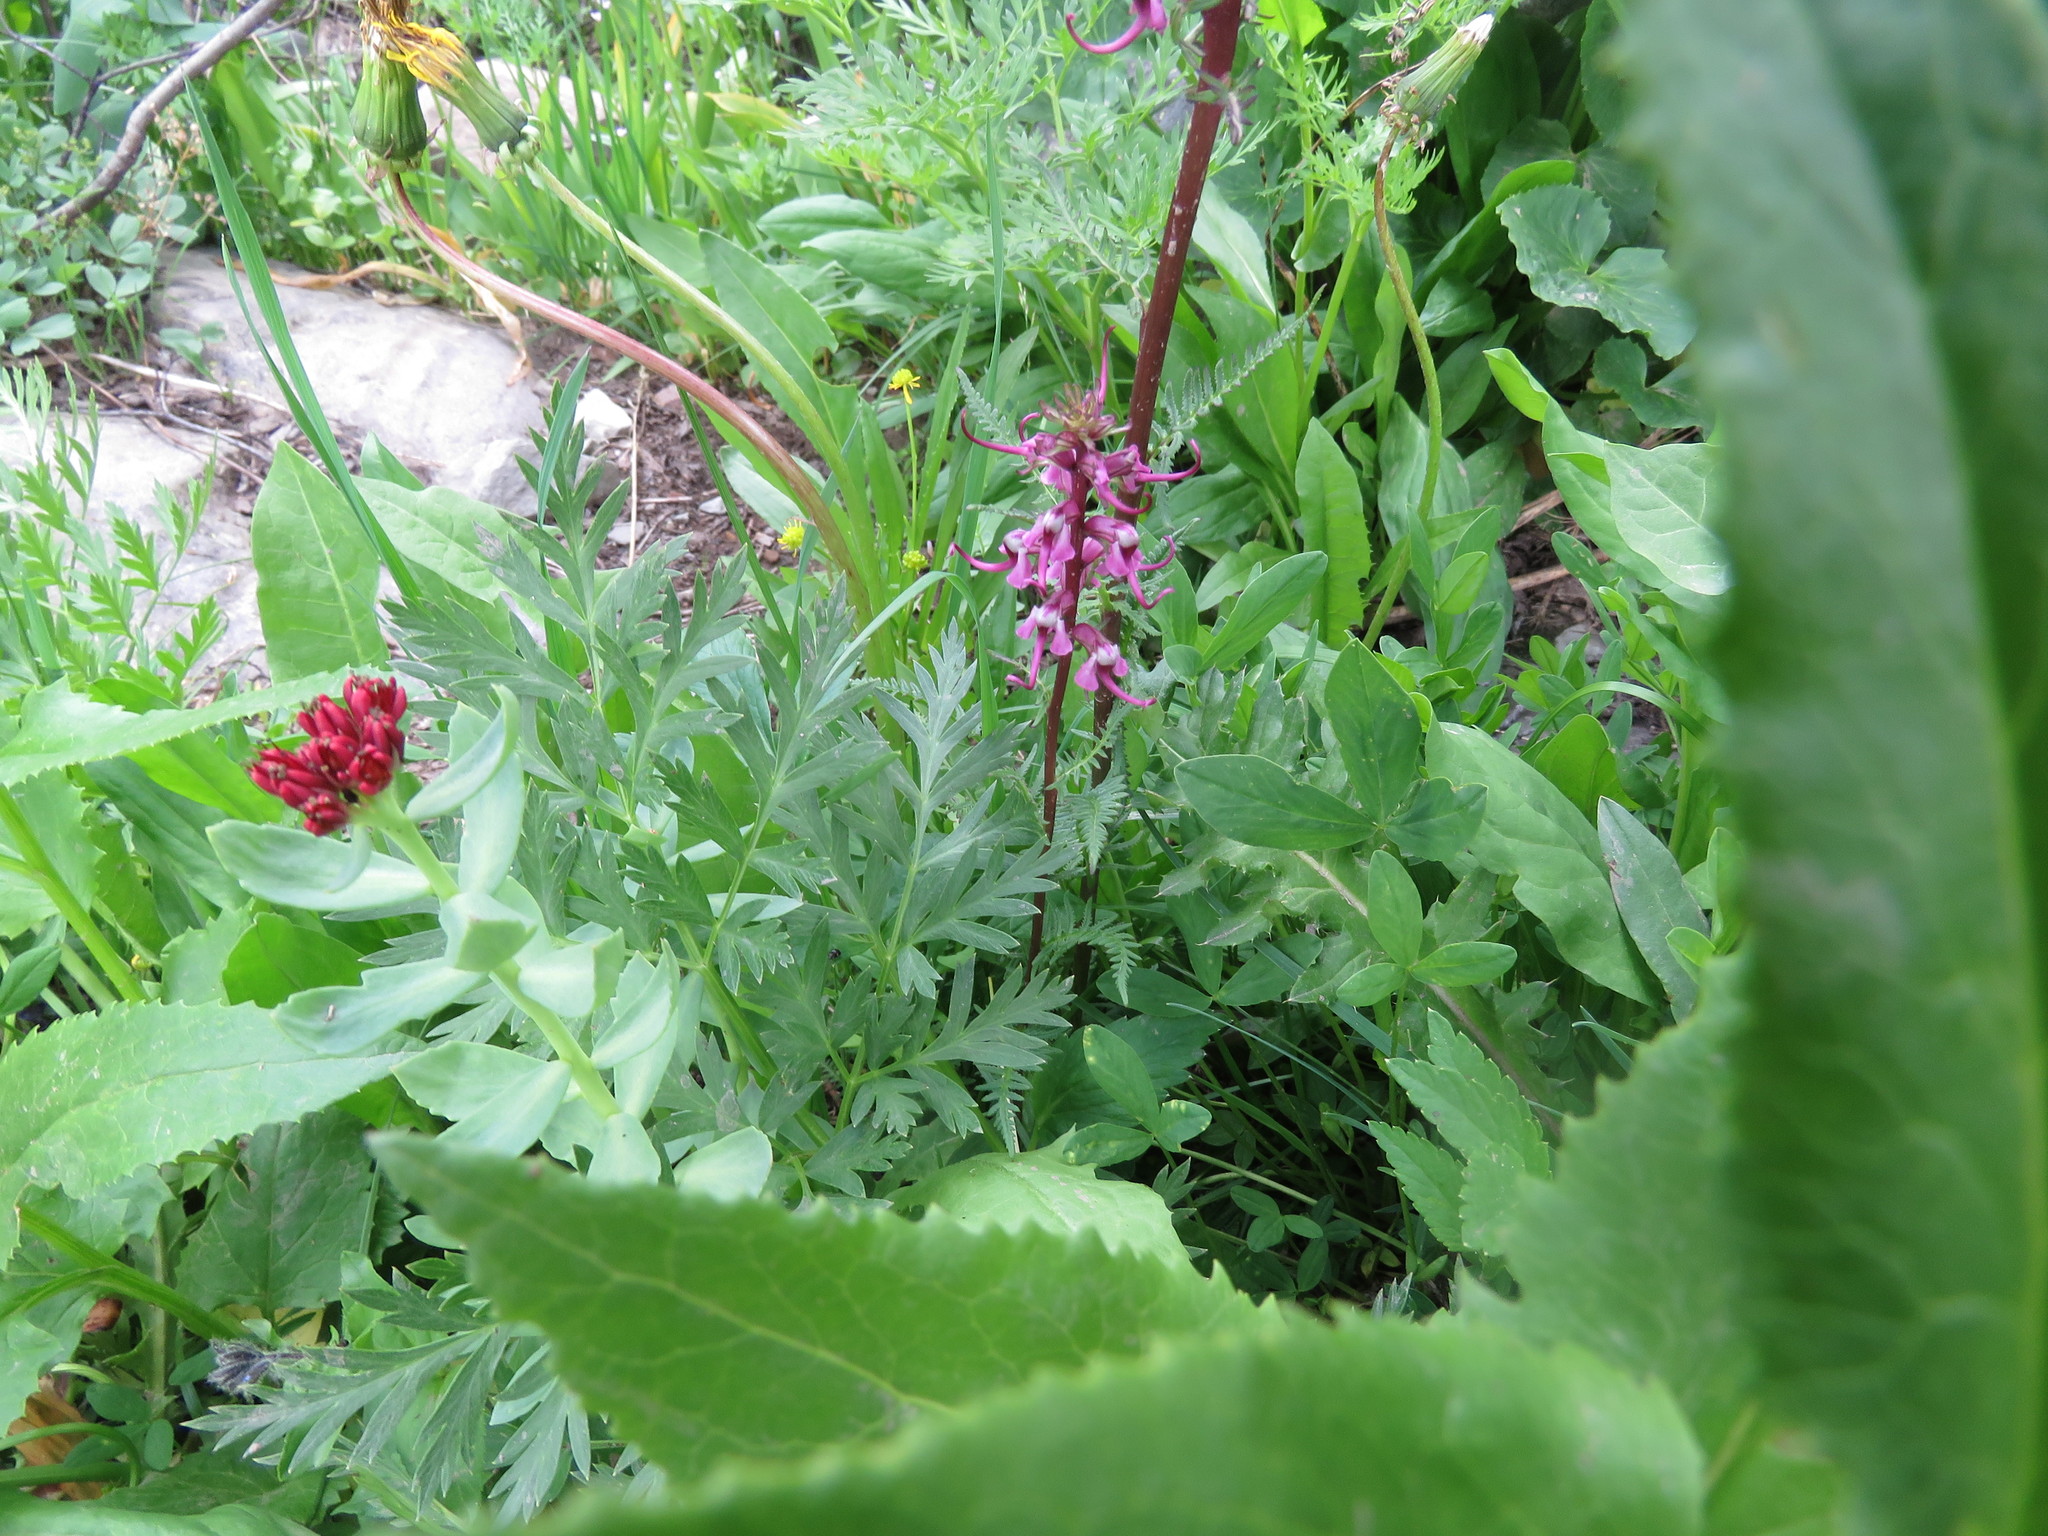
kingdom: Plantae
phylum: Tracheophyta
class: Magnoliopsida
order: Lamiales
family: Orobanchaceae
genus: Pedicularis
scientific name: Pedicularis groenlandica
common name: Elephant's-head
